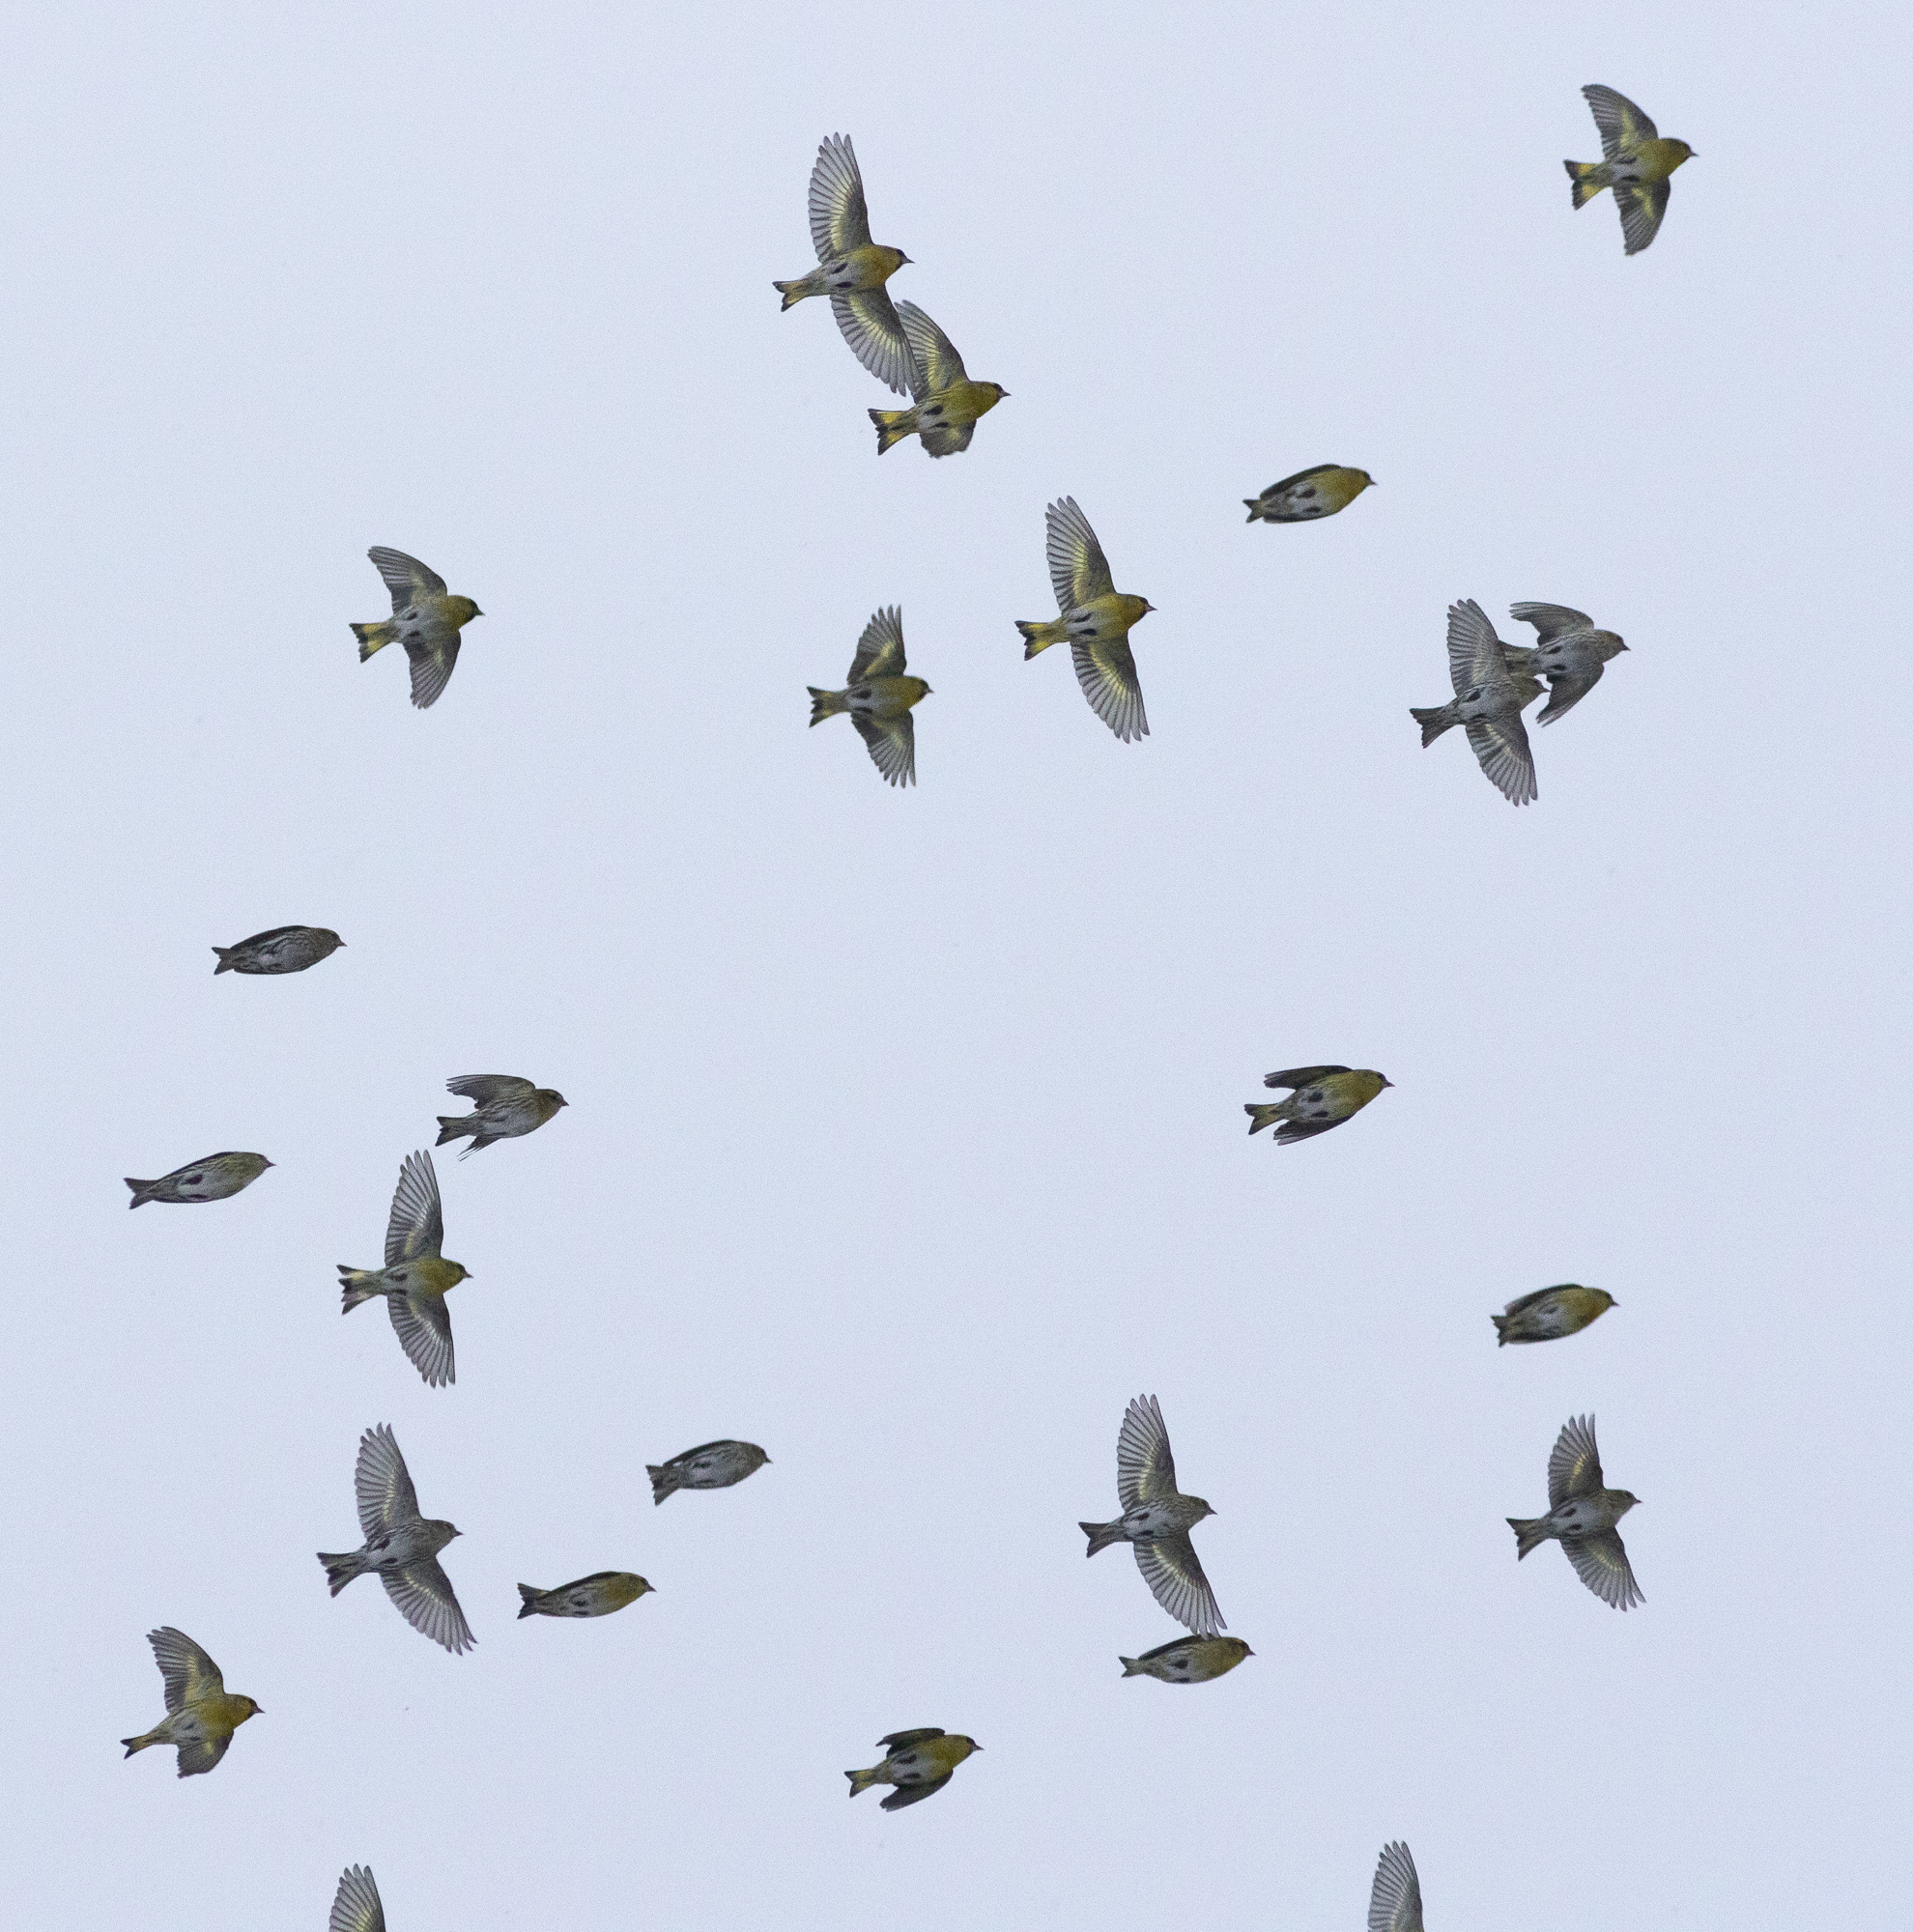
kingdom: Animalia
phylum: Chordata
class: Aves
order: Passeriformes
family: Fringillidae
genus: Spinus
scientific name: Spinus spinus
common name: Eurasian siskin
